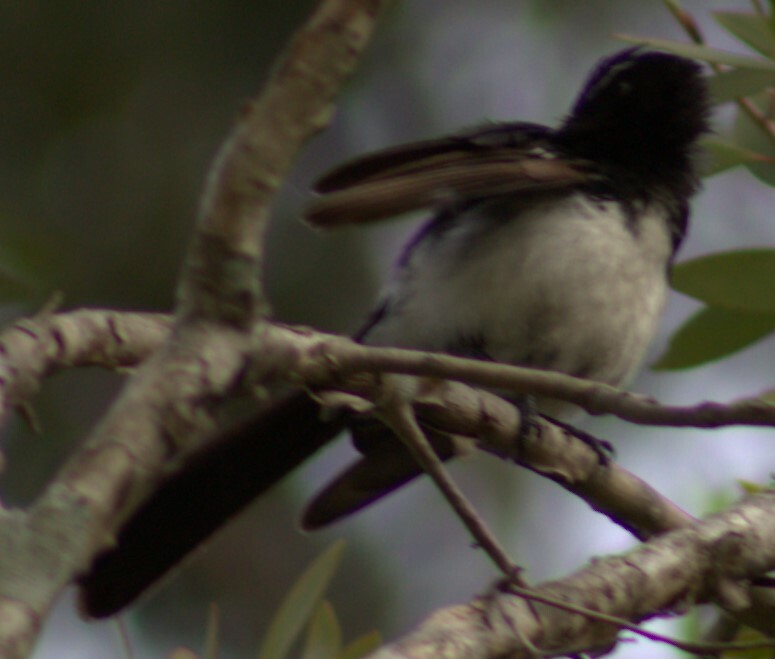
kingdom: Animalia
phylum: Chordata
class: Aves
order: Passeriformes
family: Rhipiduridae
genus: Rhipidura
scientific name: Rhipidura leucophrys
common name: Willie wagtail
